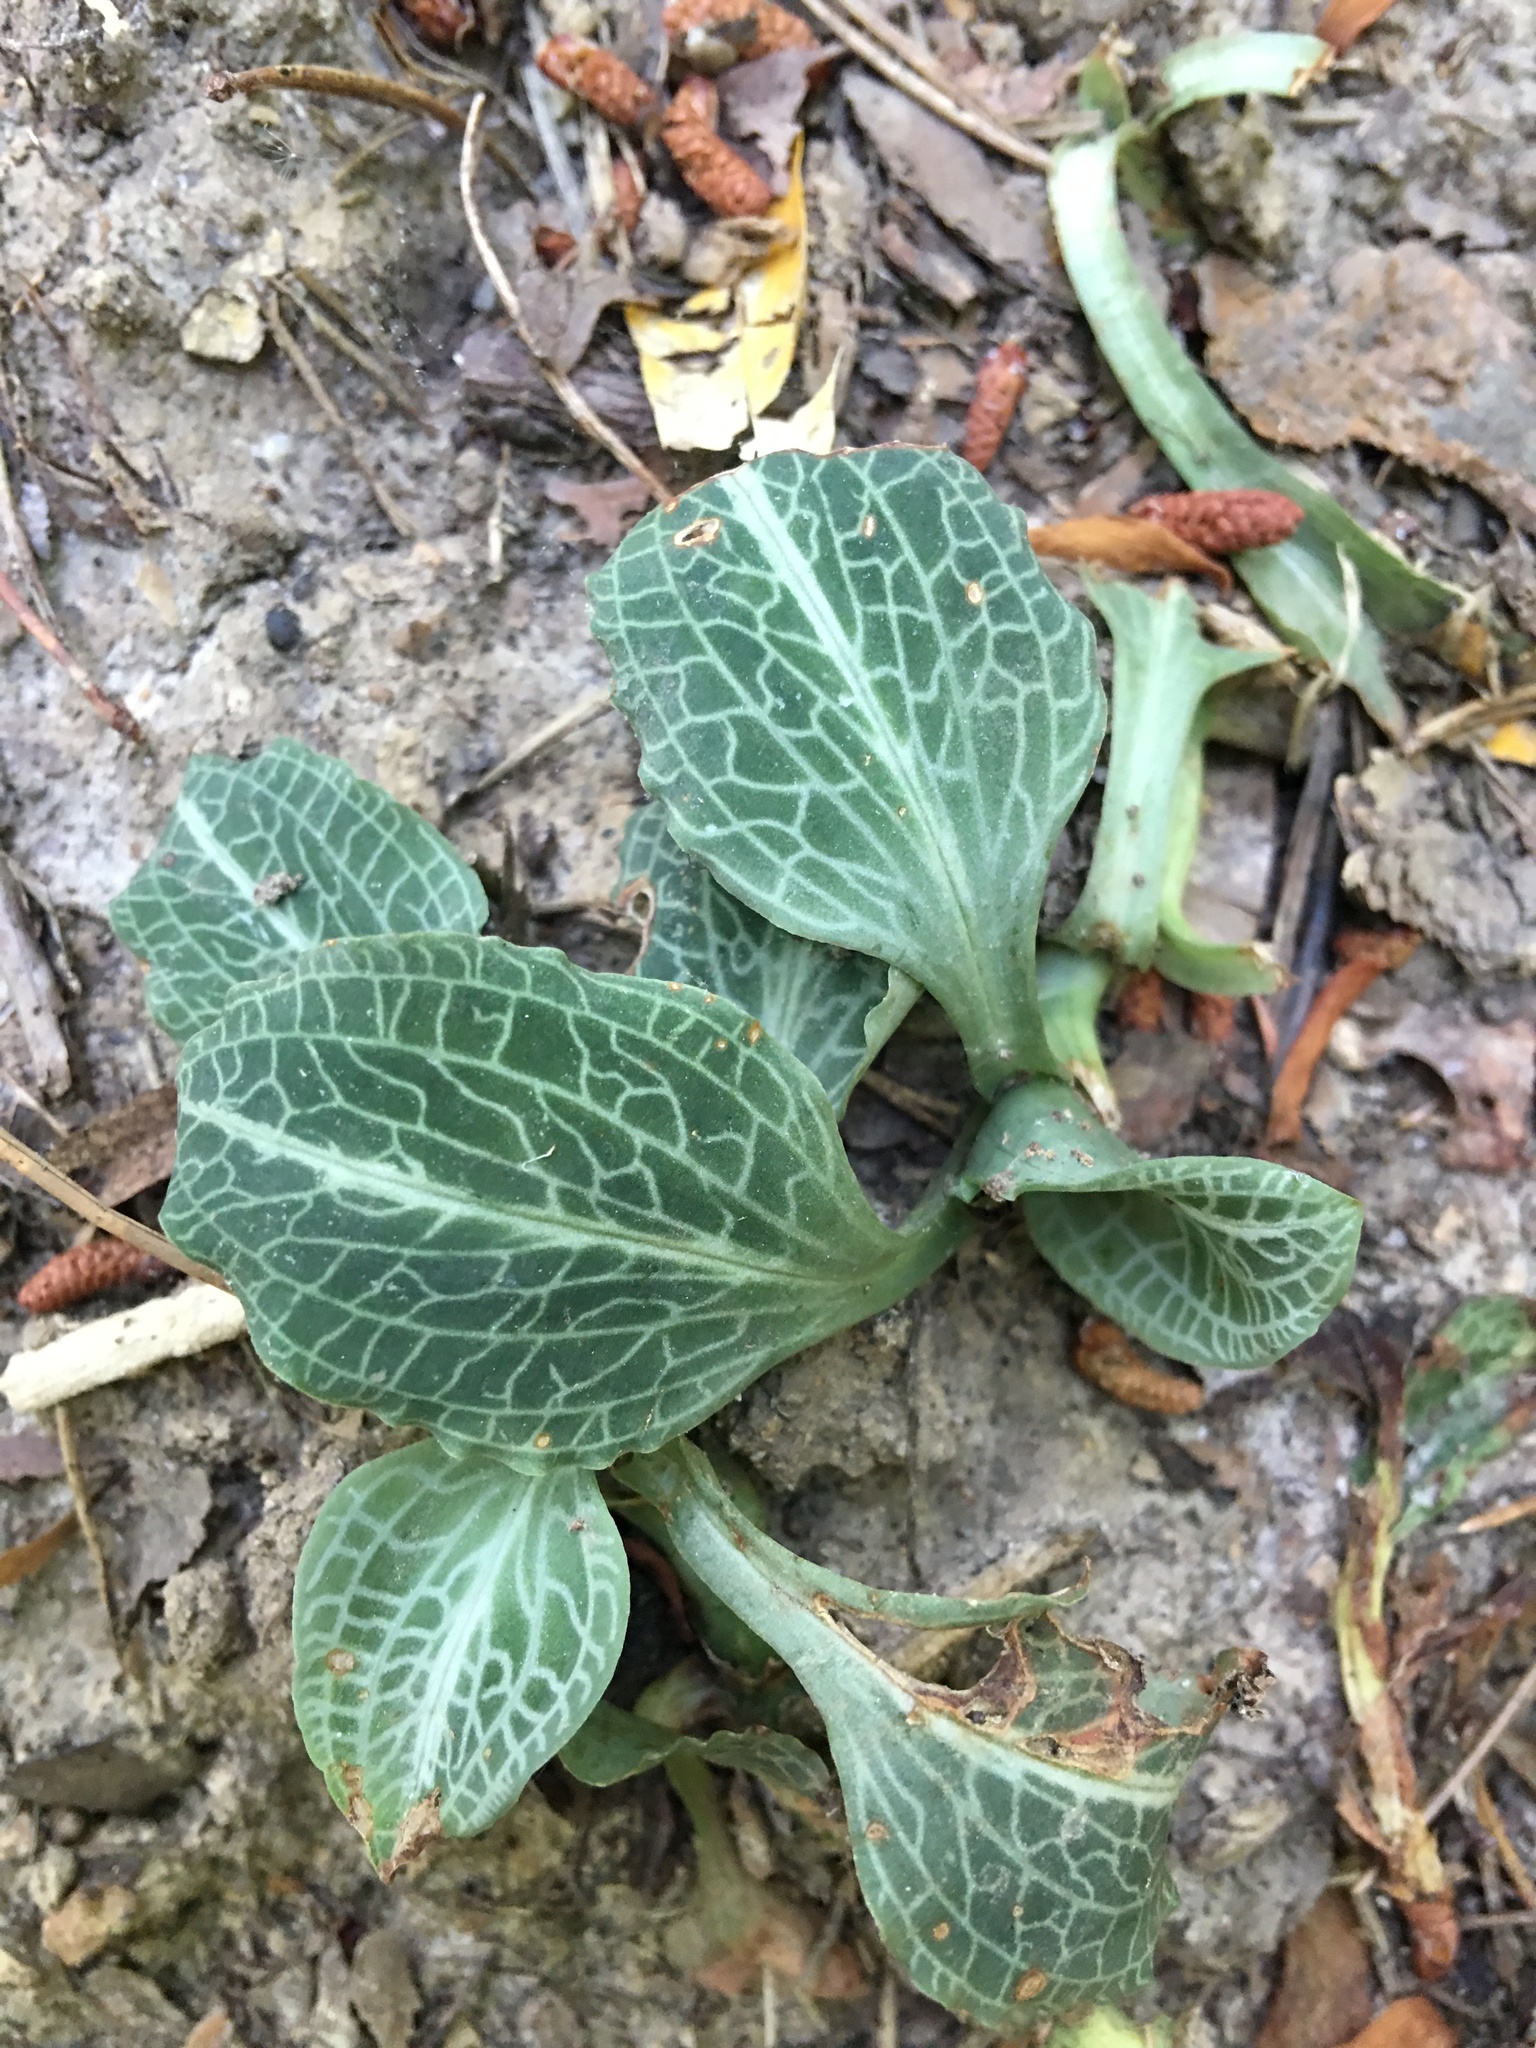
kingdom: Plantae
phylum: Tracheophyta
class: Liliopsida
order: Asparagales
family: Orchidaceae
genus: Goodyera
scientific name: Goodyera pubescens
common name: Downy rattlesnake-plantain
